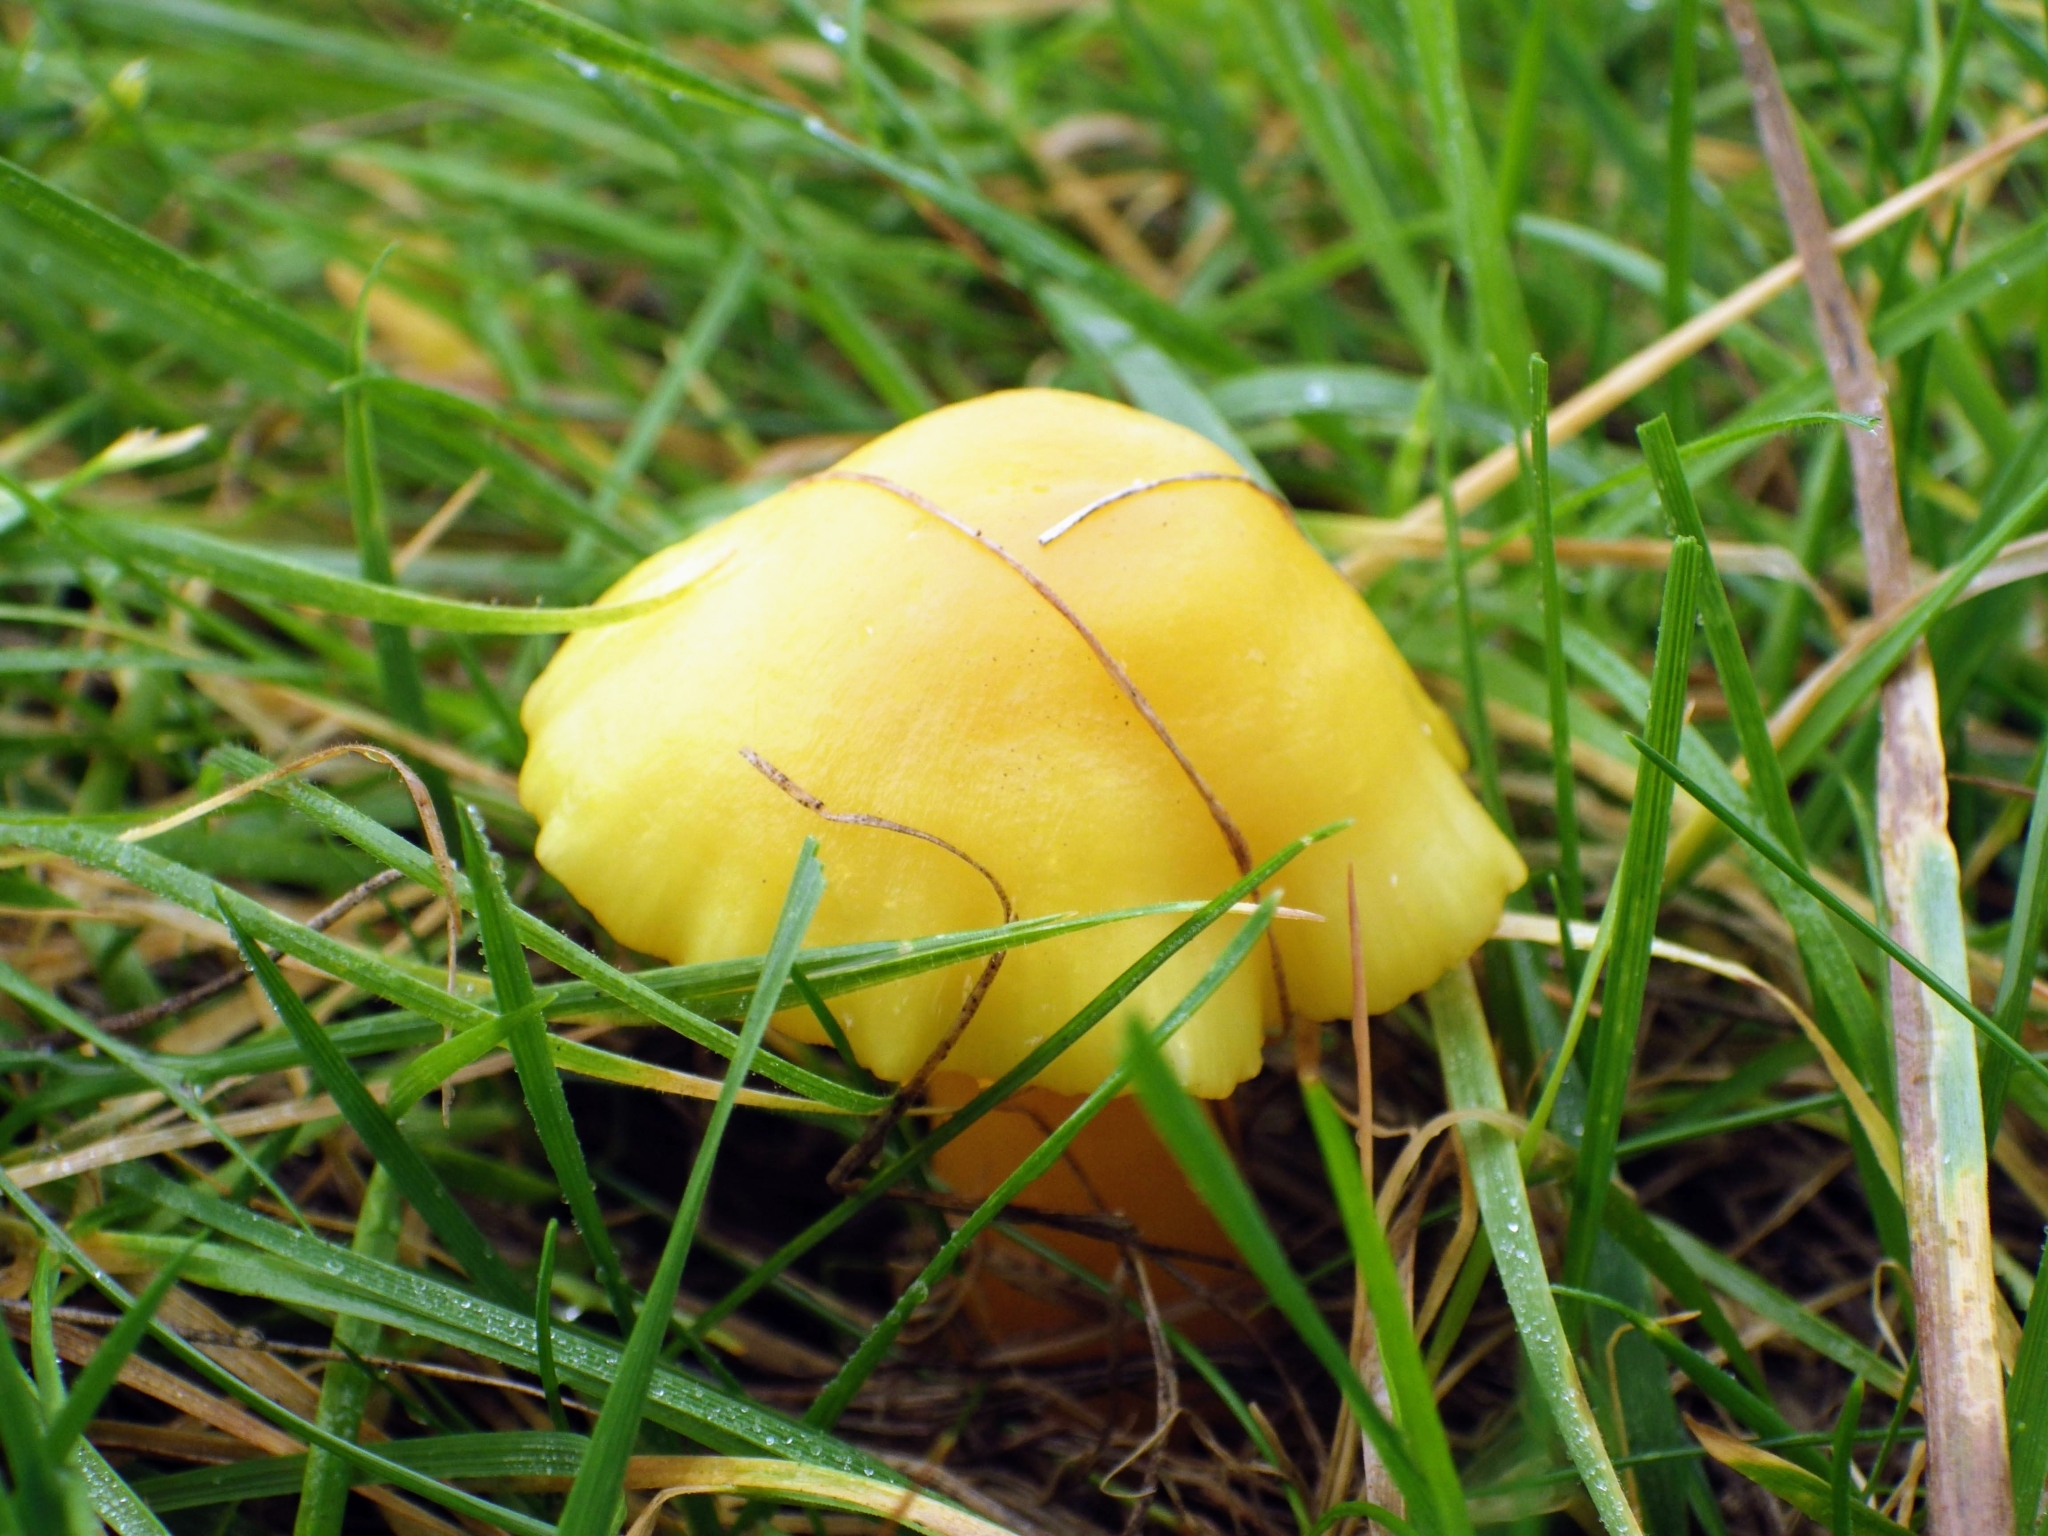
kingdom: Fungi
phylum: Basidiomycota
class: Agaricomycetes
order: Agaricales
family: Hygrophoraceae
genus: Hygrocybe
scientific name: Hygrocybe quieta
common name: Oily waxcap
